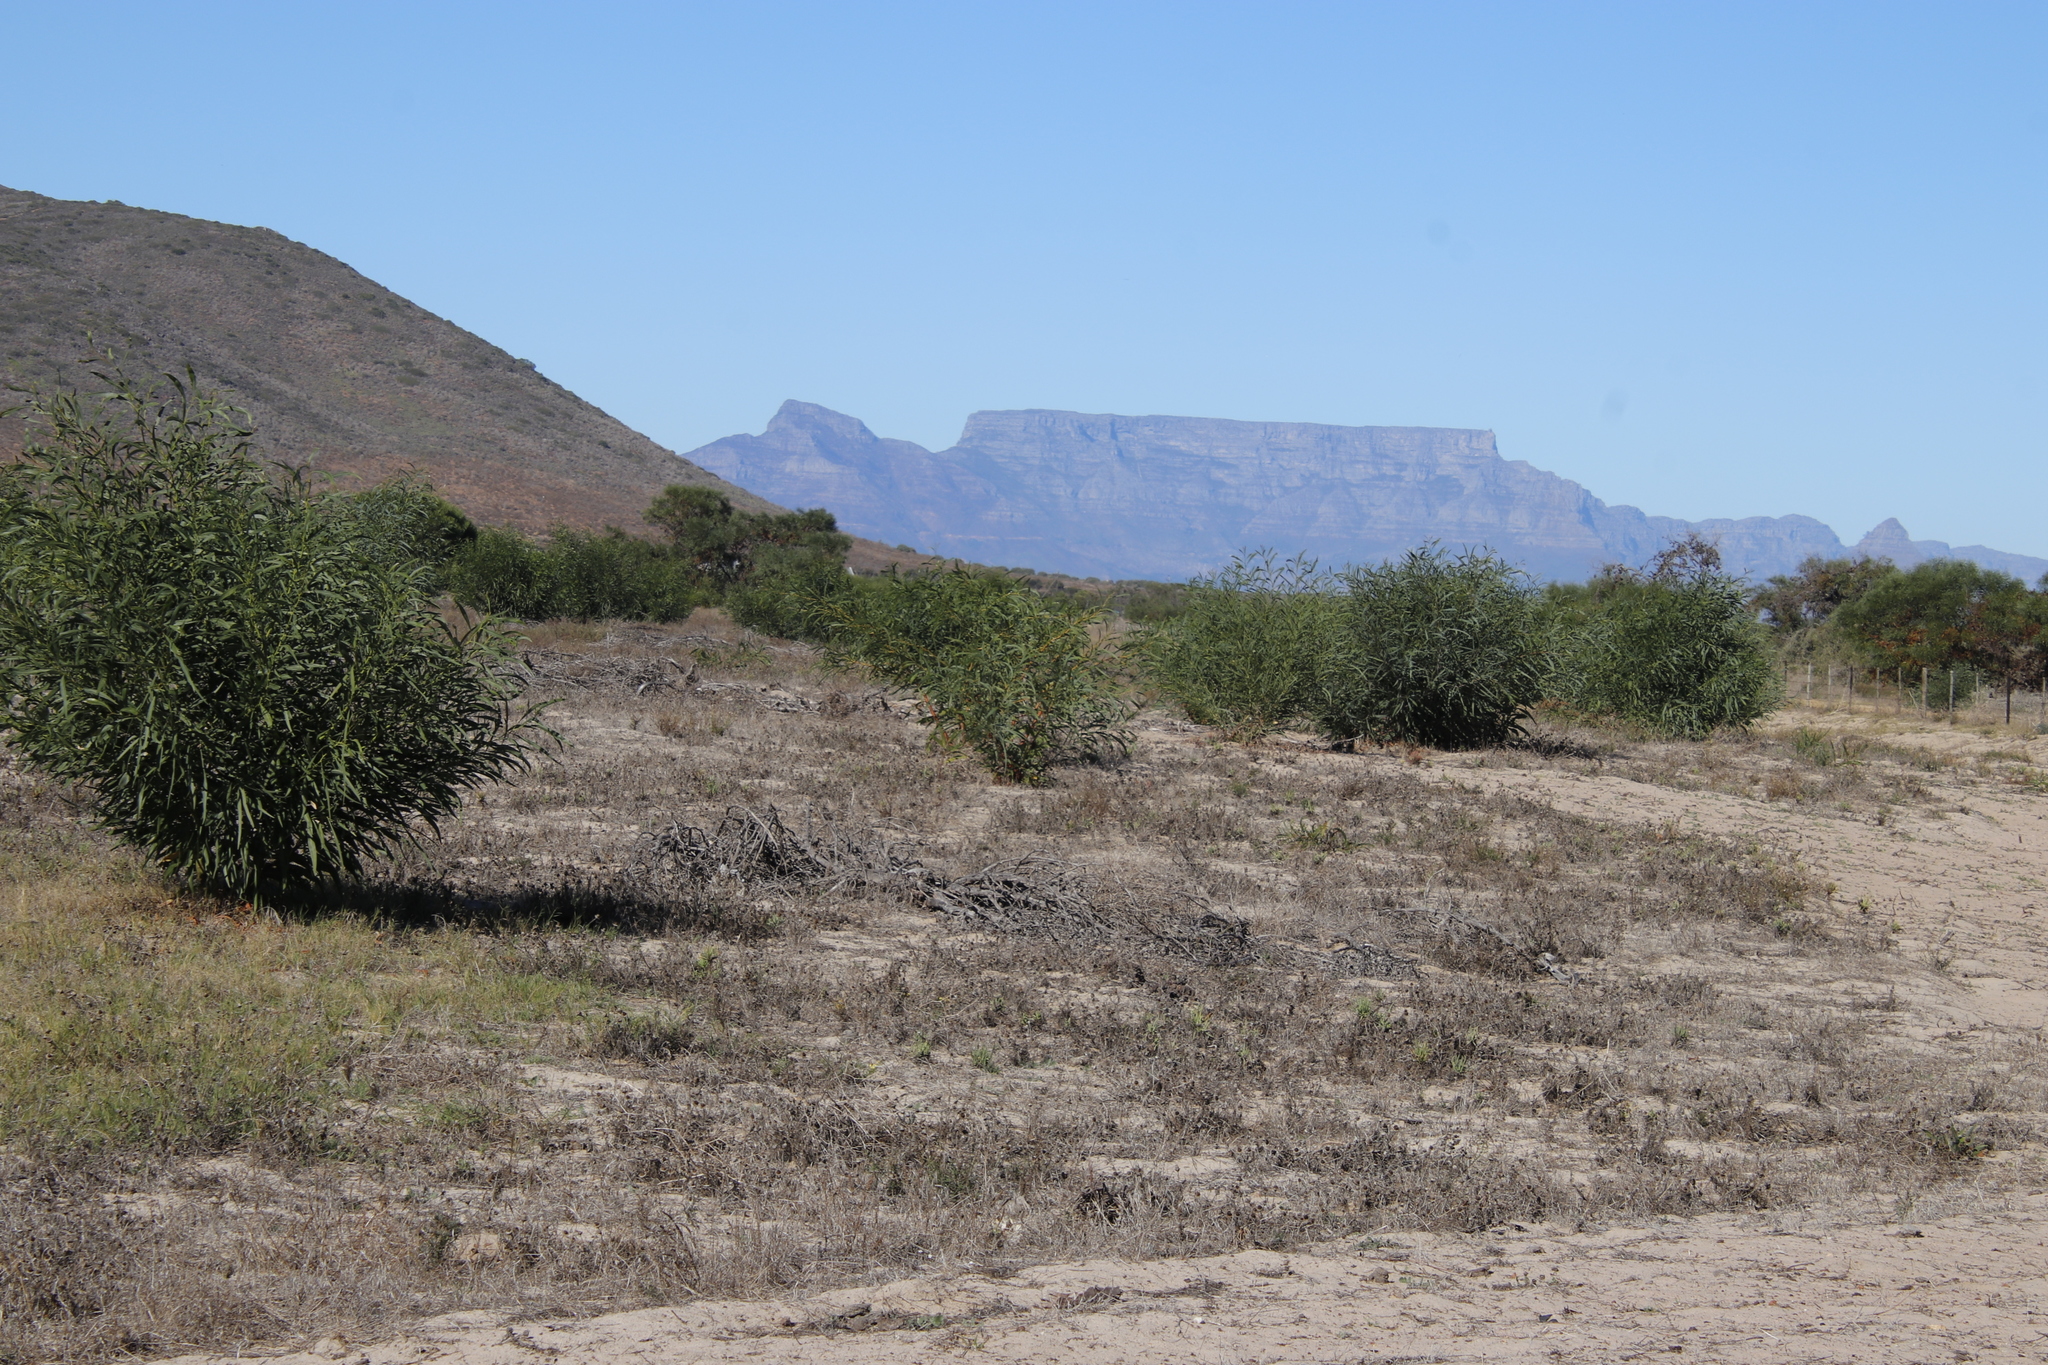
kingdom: Plantae
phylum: Tracheophyta
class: Magnoliopsida
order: Fabales
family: Fabaceae
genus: Acacia
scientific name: Acacia saligna
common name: Orange wattle
